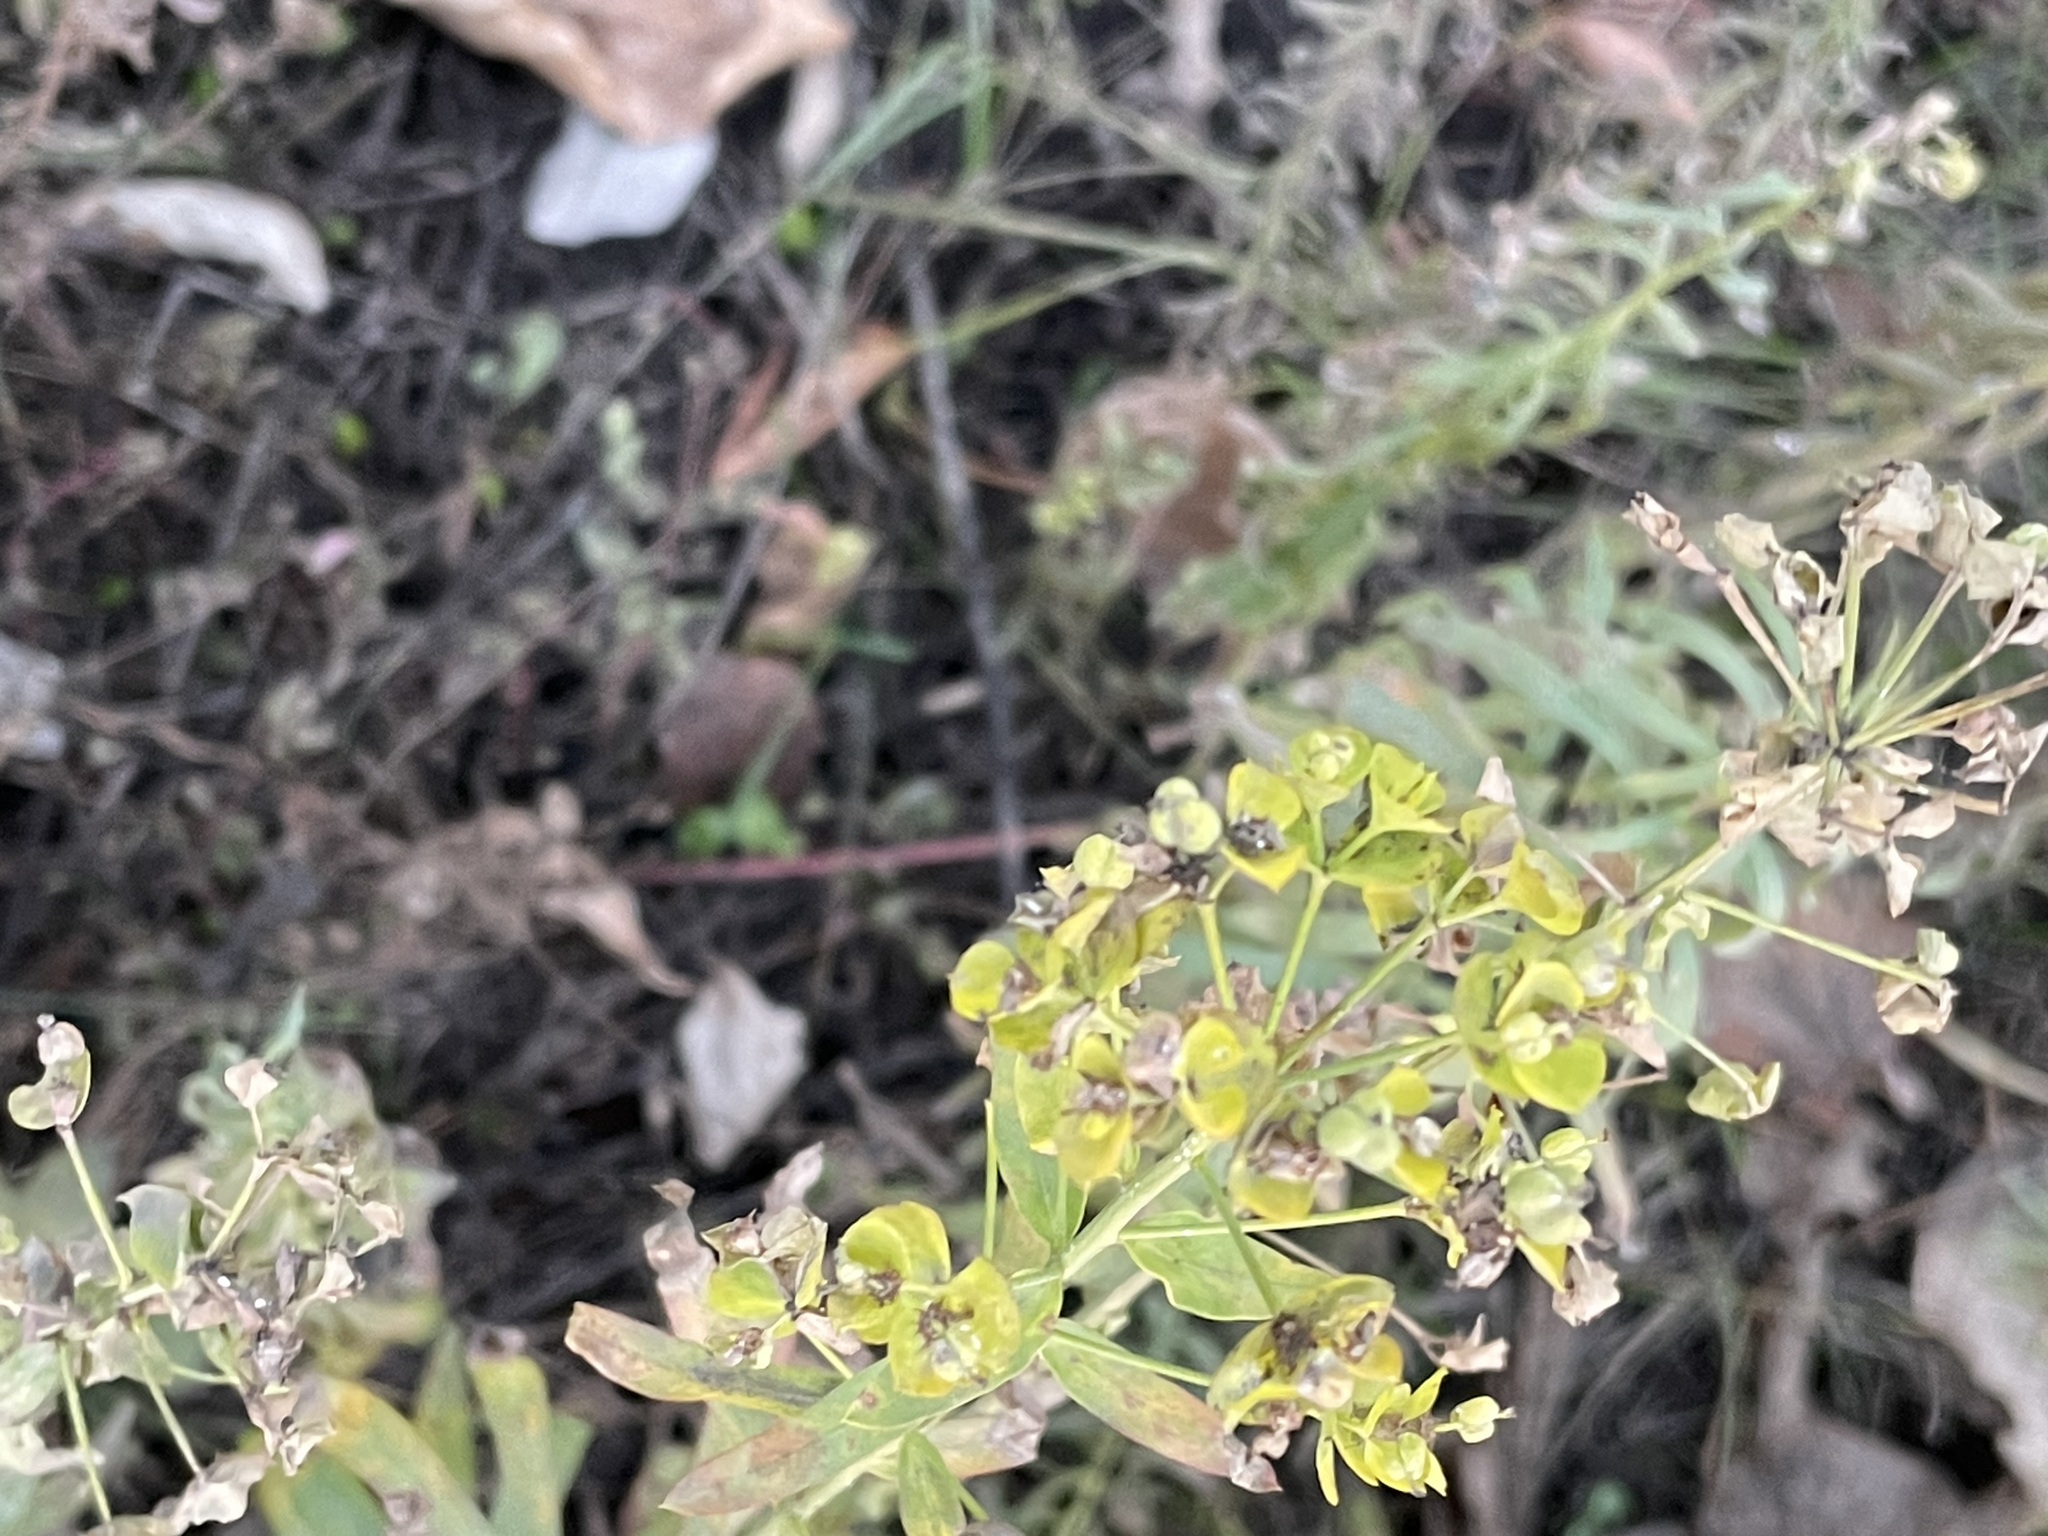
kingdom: Plantae
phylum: Tracheophyta
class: Magnoliopsida
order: Malpighiales
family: Euphorbiaceae
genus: Euphorbia
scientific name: Euphorbia virgata
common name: Leafy spurge
